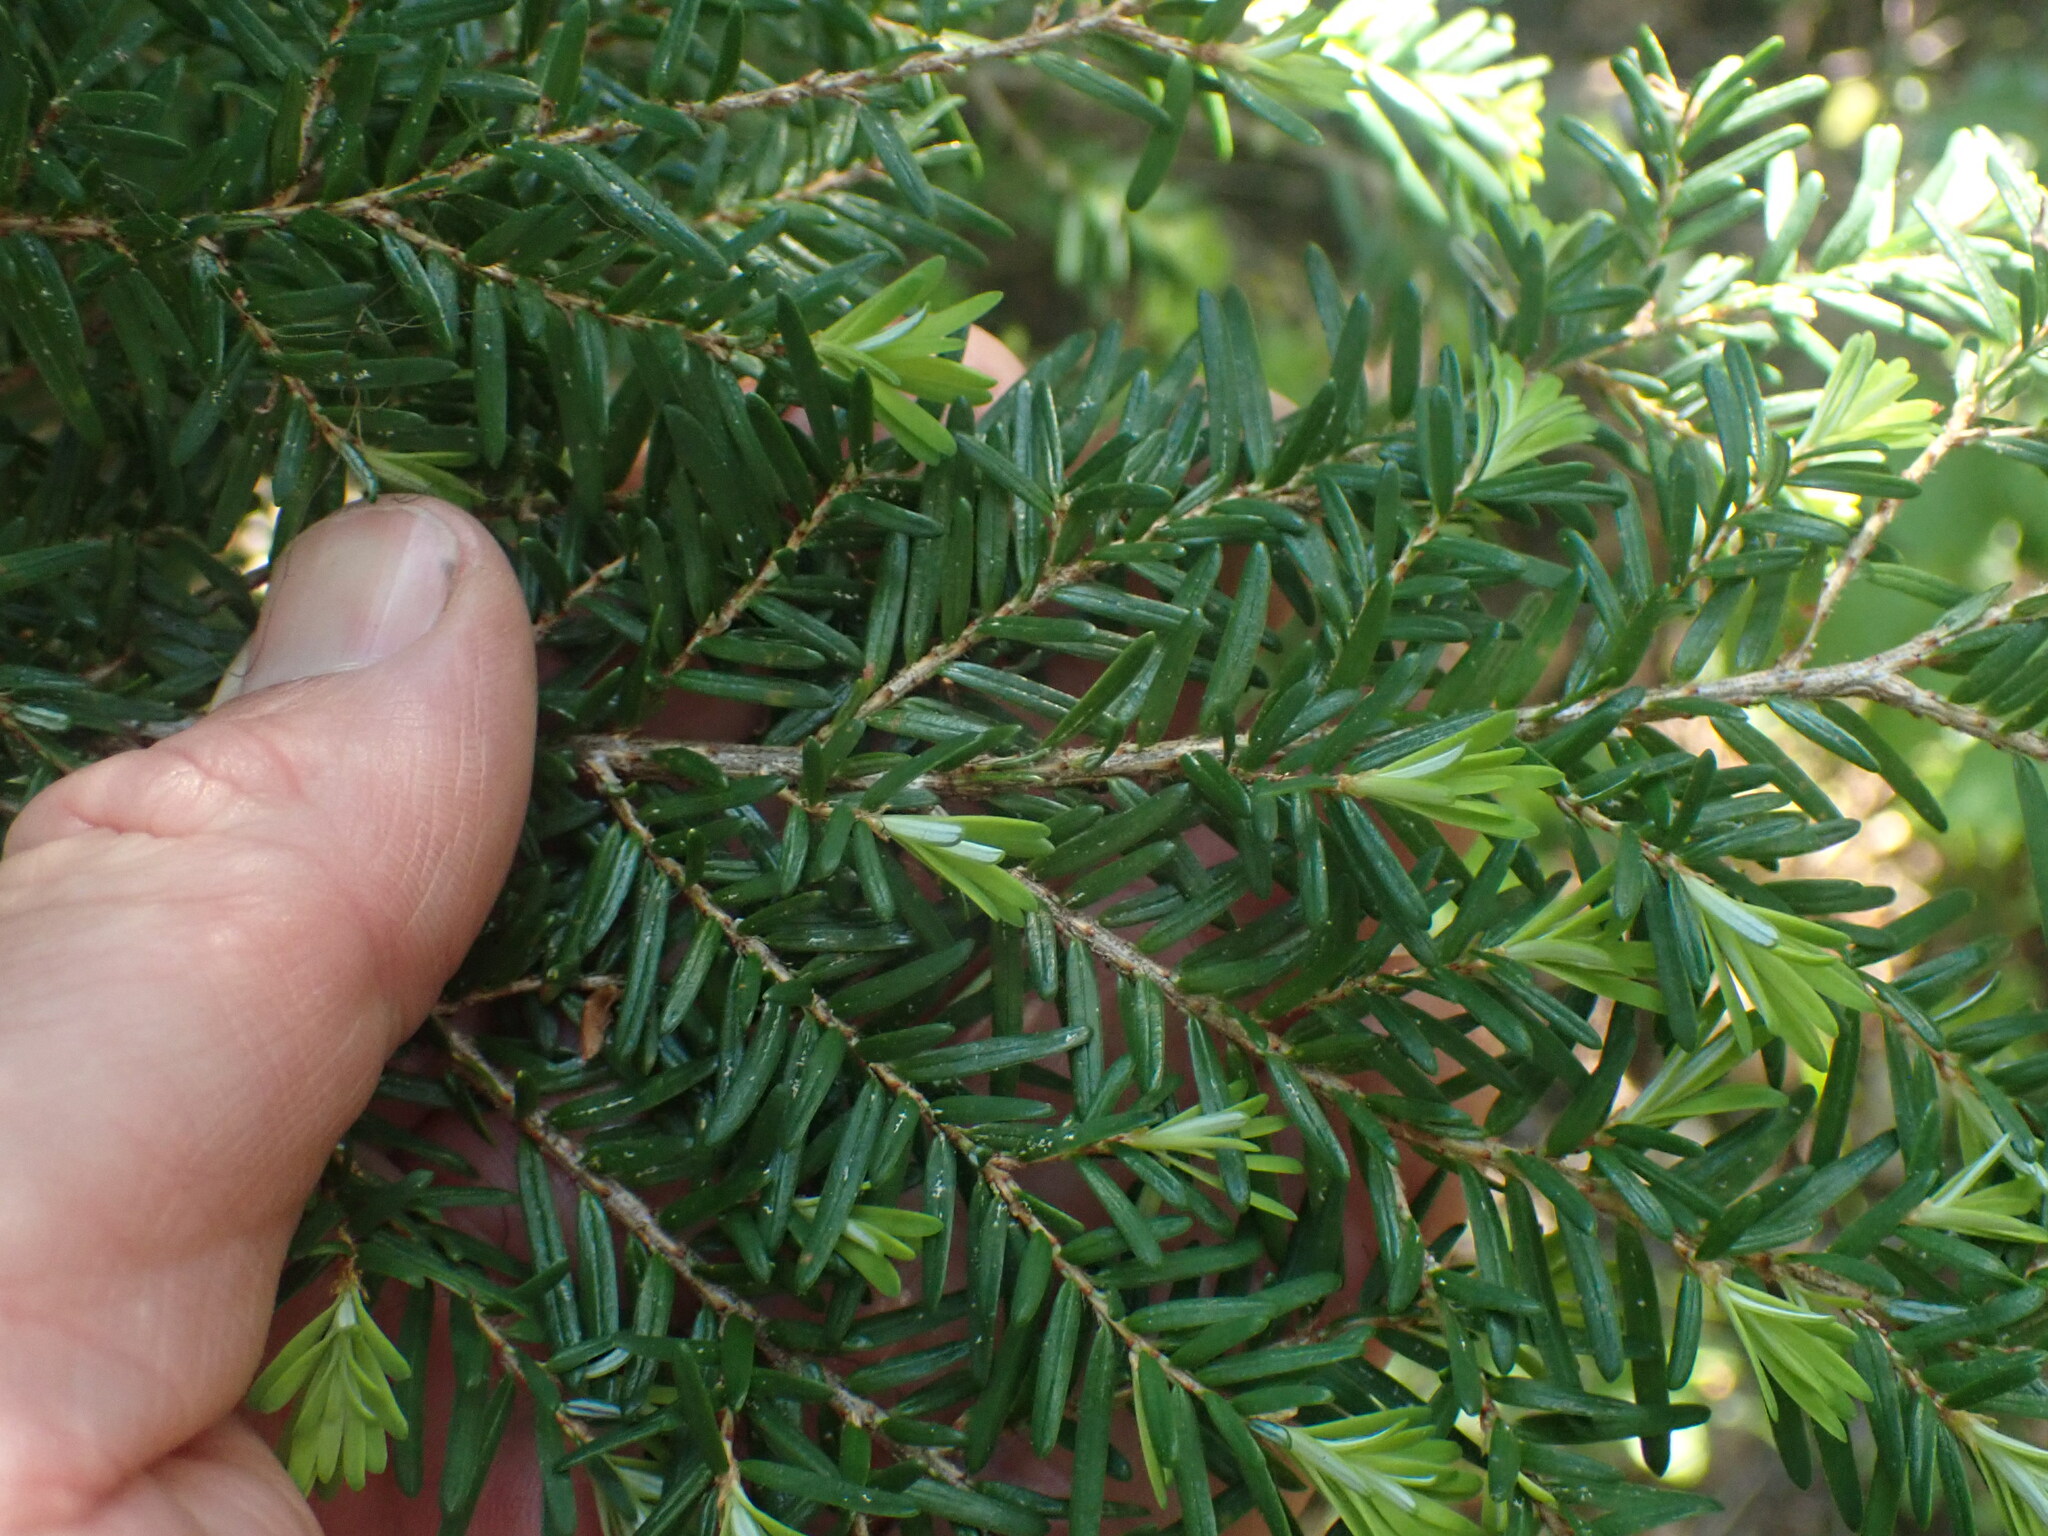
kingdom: Plantae
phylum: Tracheophyta
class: Pinopsida
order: Pinales
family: Pinaceae
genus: Tsuga
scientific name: Tsuga heterophylla
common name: Western hemlock
